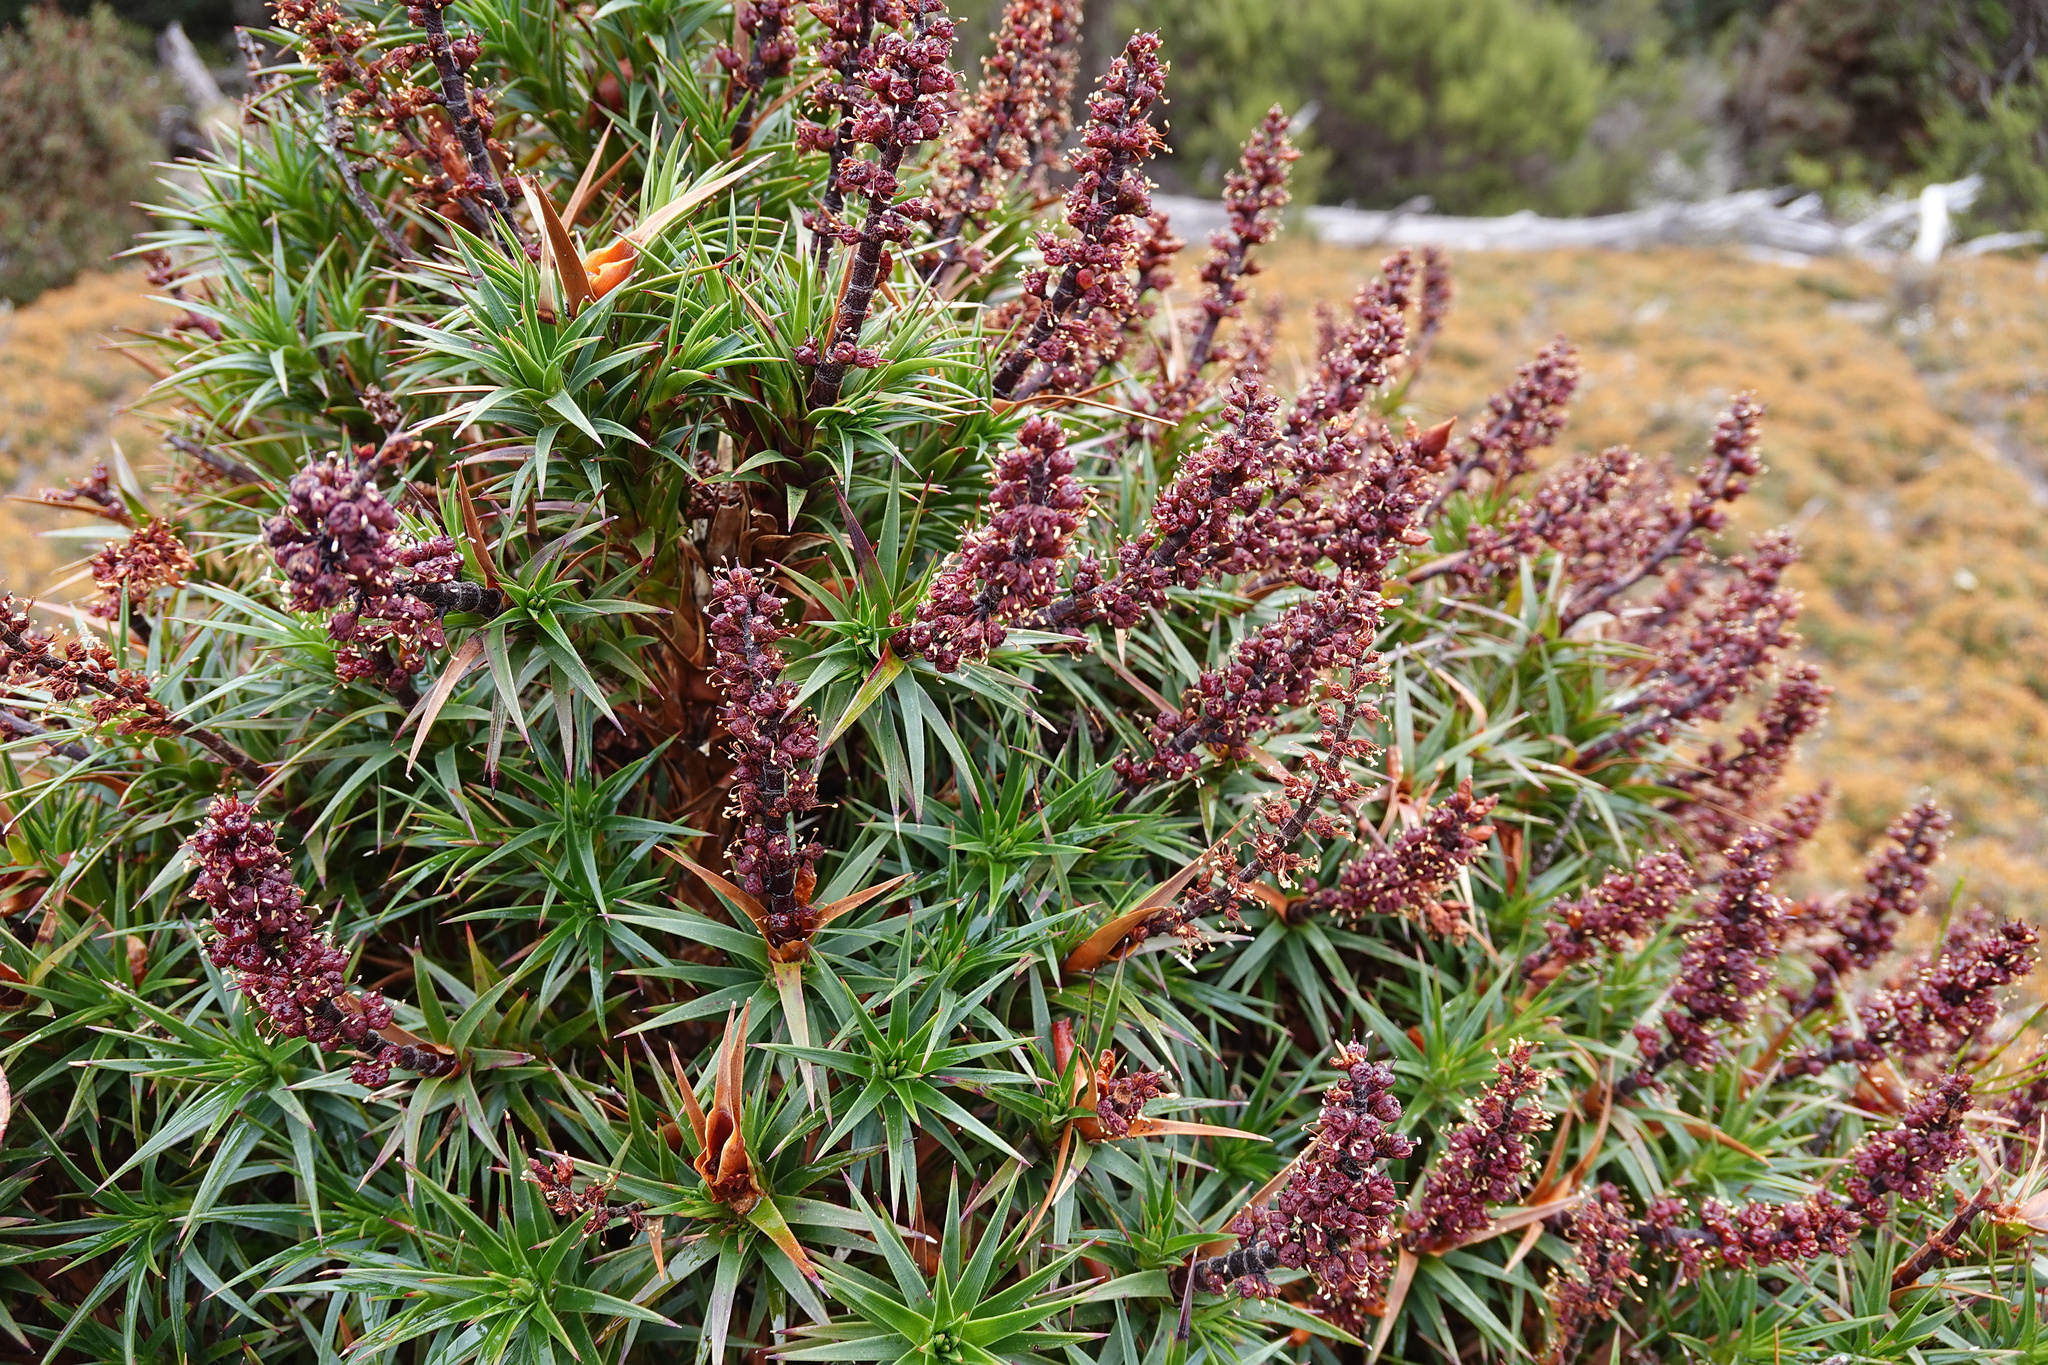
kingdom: Plantae
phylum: Tracheophyta
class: Magnoliopsida
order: Ericales
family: Ericaceae
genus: Dracophyllum
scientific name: Dracophyllum persistentifolium
